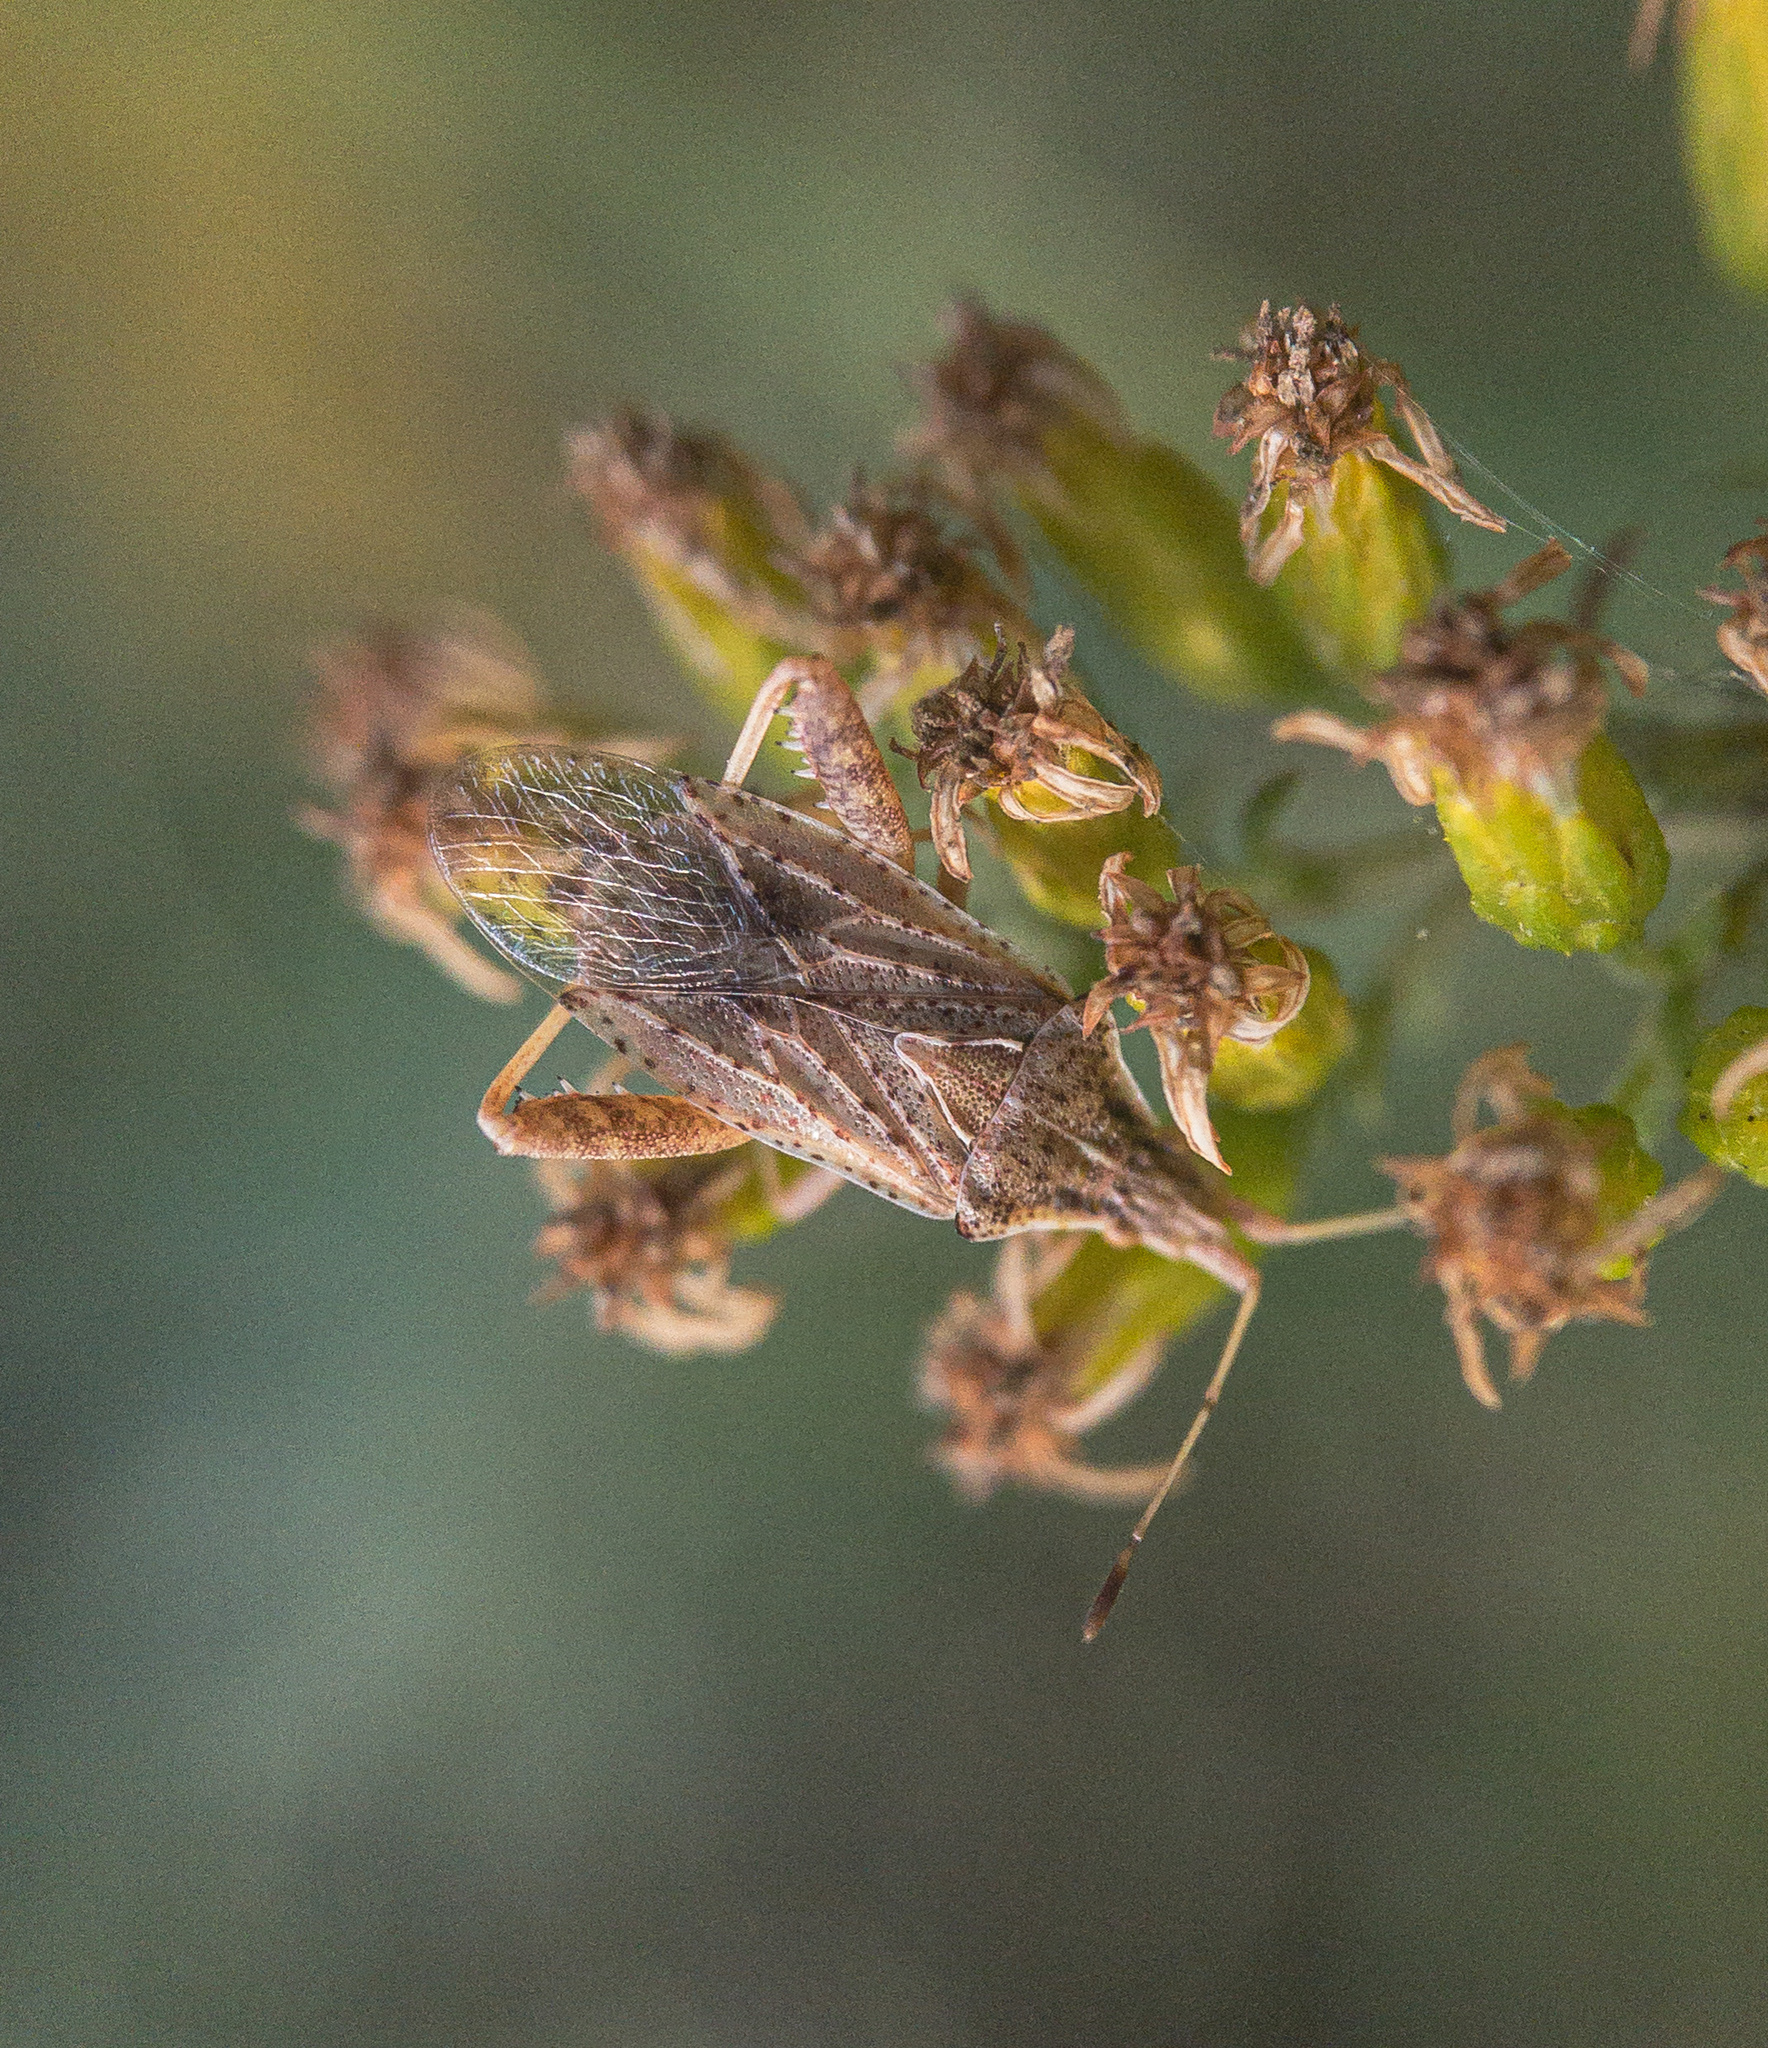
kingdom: Animalia
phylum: Arthropoda
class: Insecta
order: Hemiptera
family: Rhopalidae
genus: Harmostes
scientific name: Harmostes reflexulus
